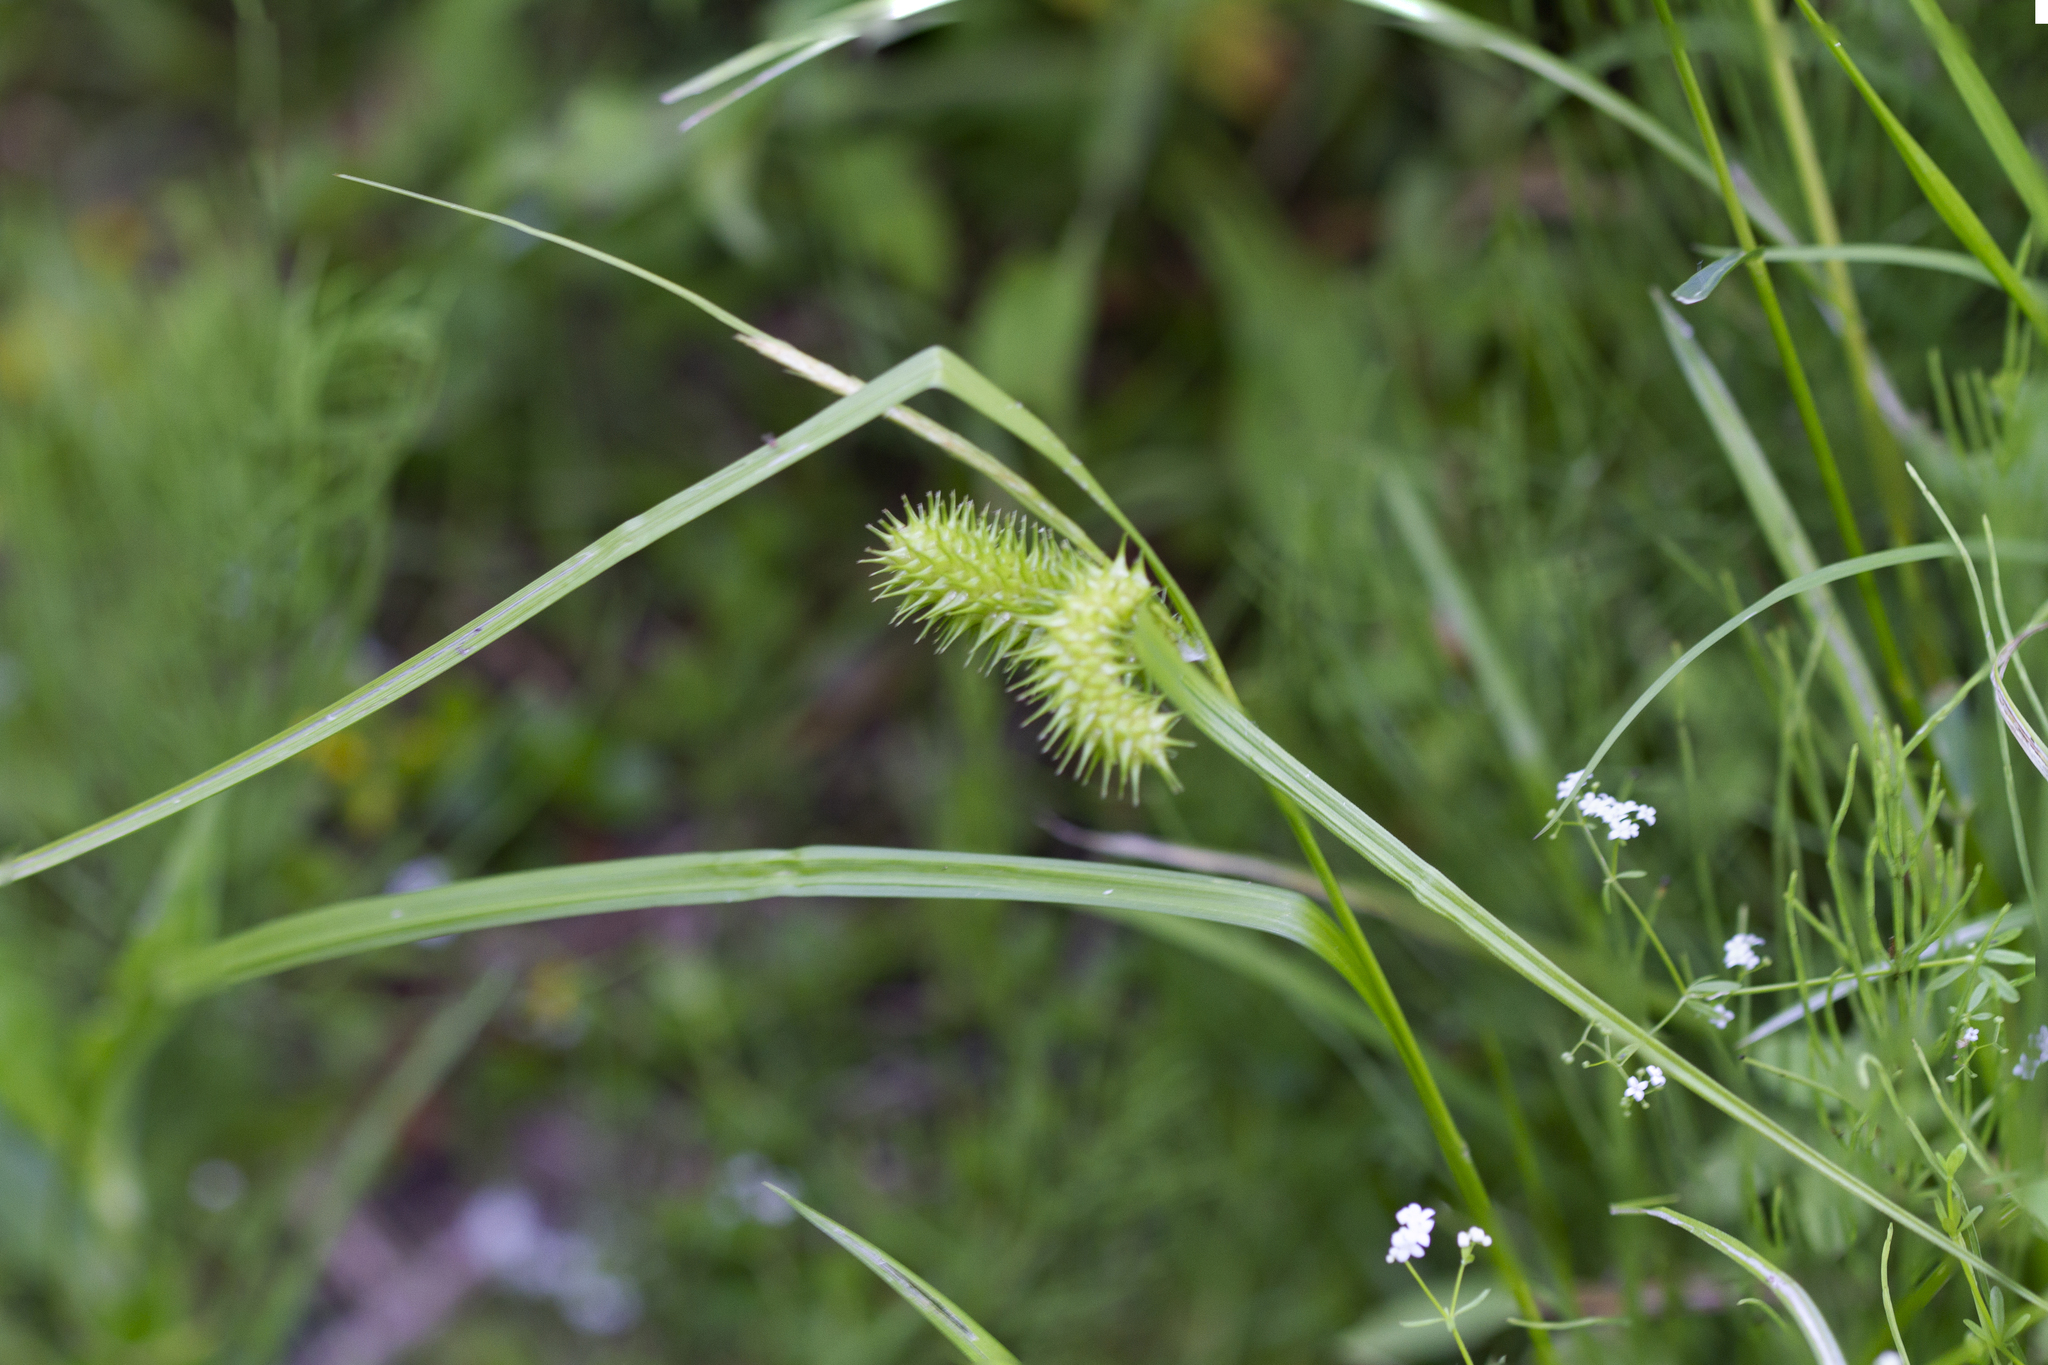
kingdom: Plantae
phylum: Tracheophyta
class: Liliopsida
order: Poales
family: Cyperaceae
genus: Carex
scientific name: Carex hystericina
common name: Bottlebrush sedge
